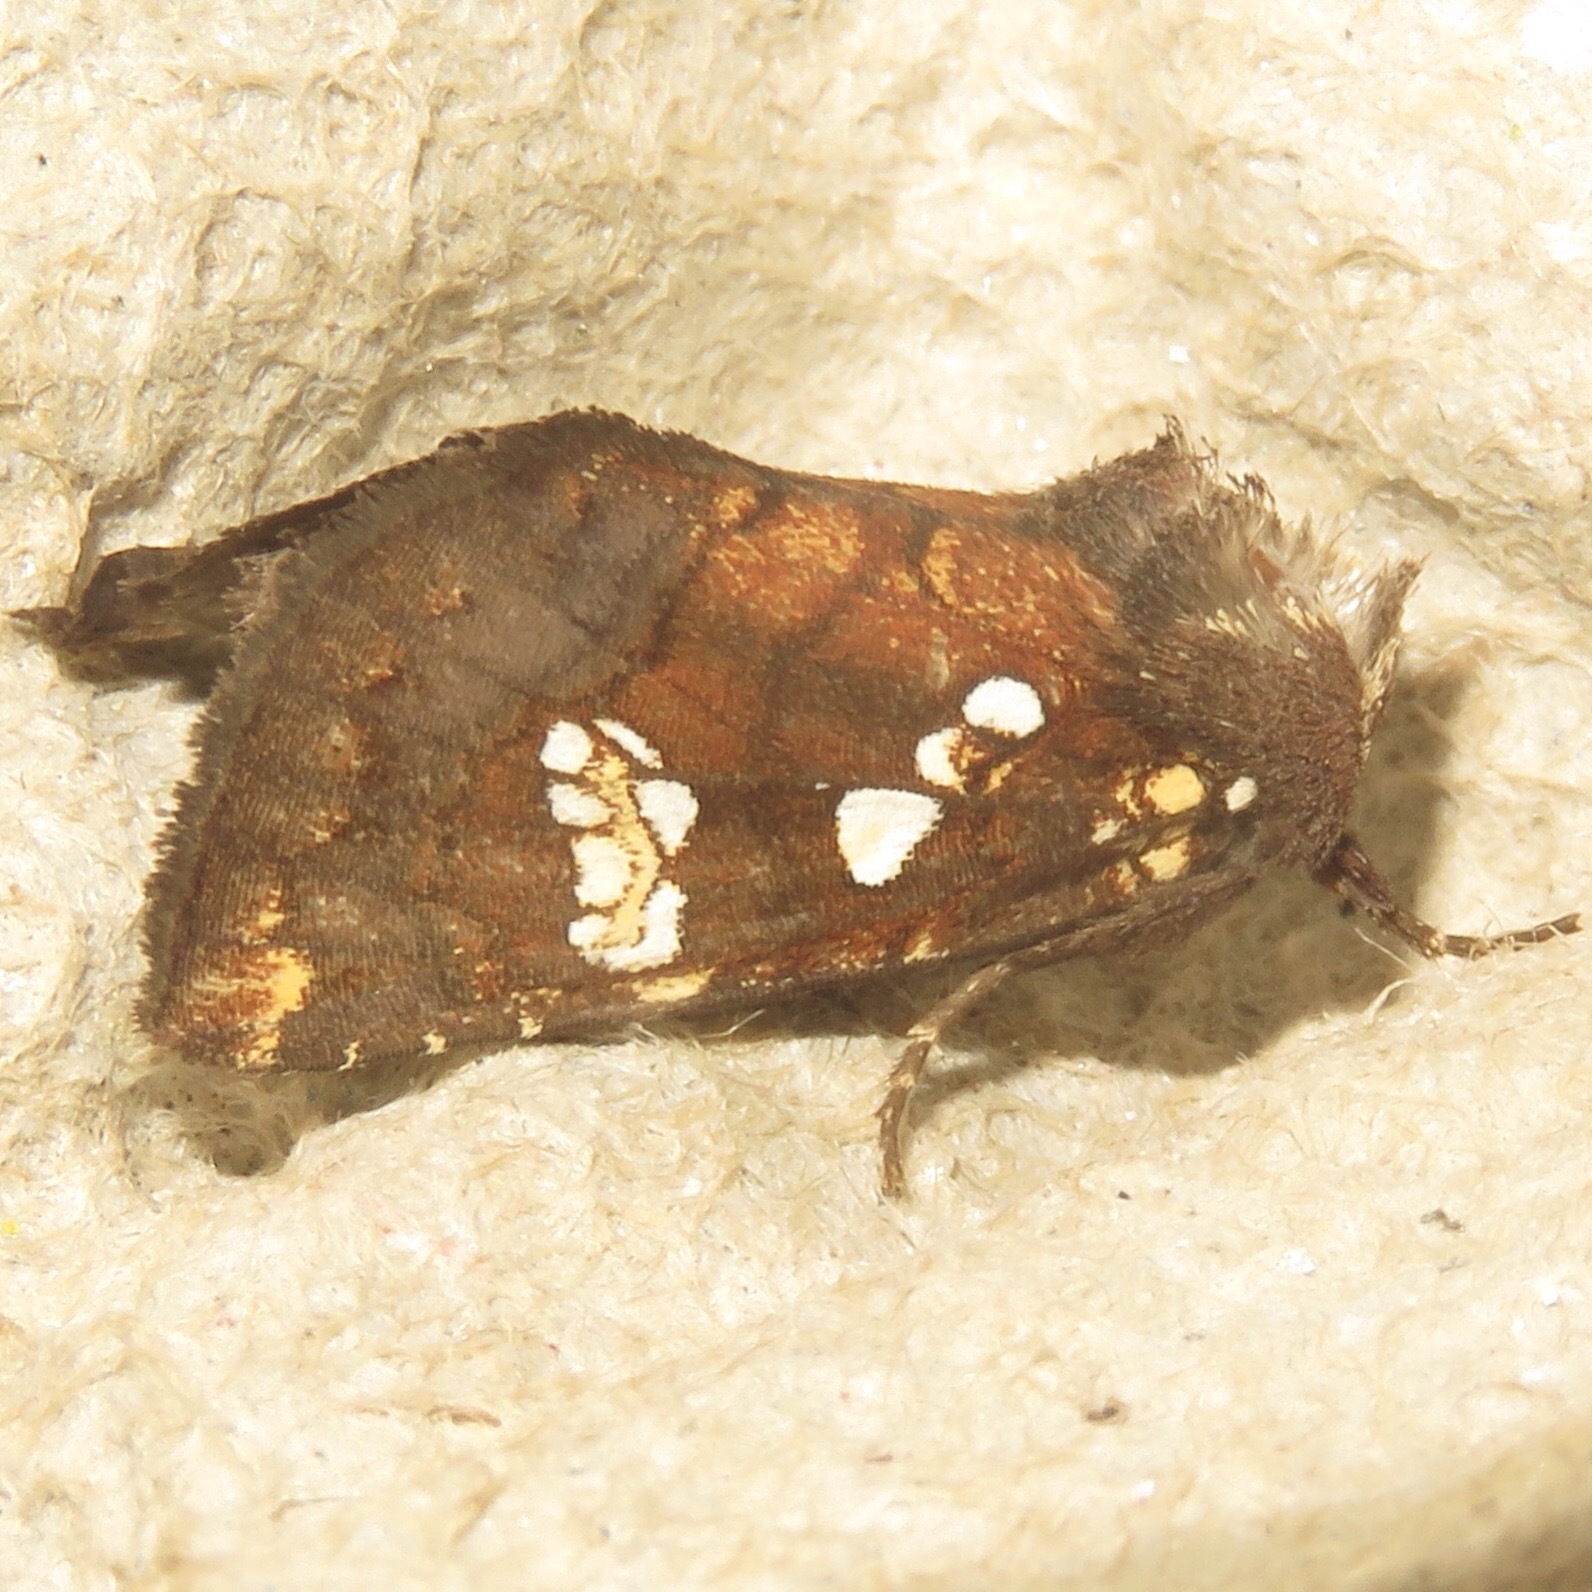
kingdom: Animalia
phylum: Arthropoda
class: Insecta
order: Lepidoptera
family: Noctuidae
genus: Papaipema
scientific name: Papaipema nepheleptena
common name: Turtle head borer moth
